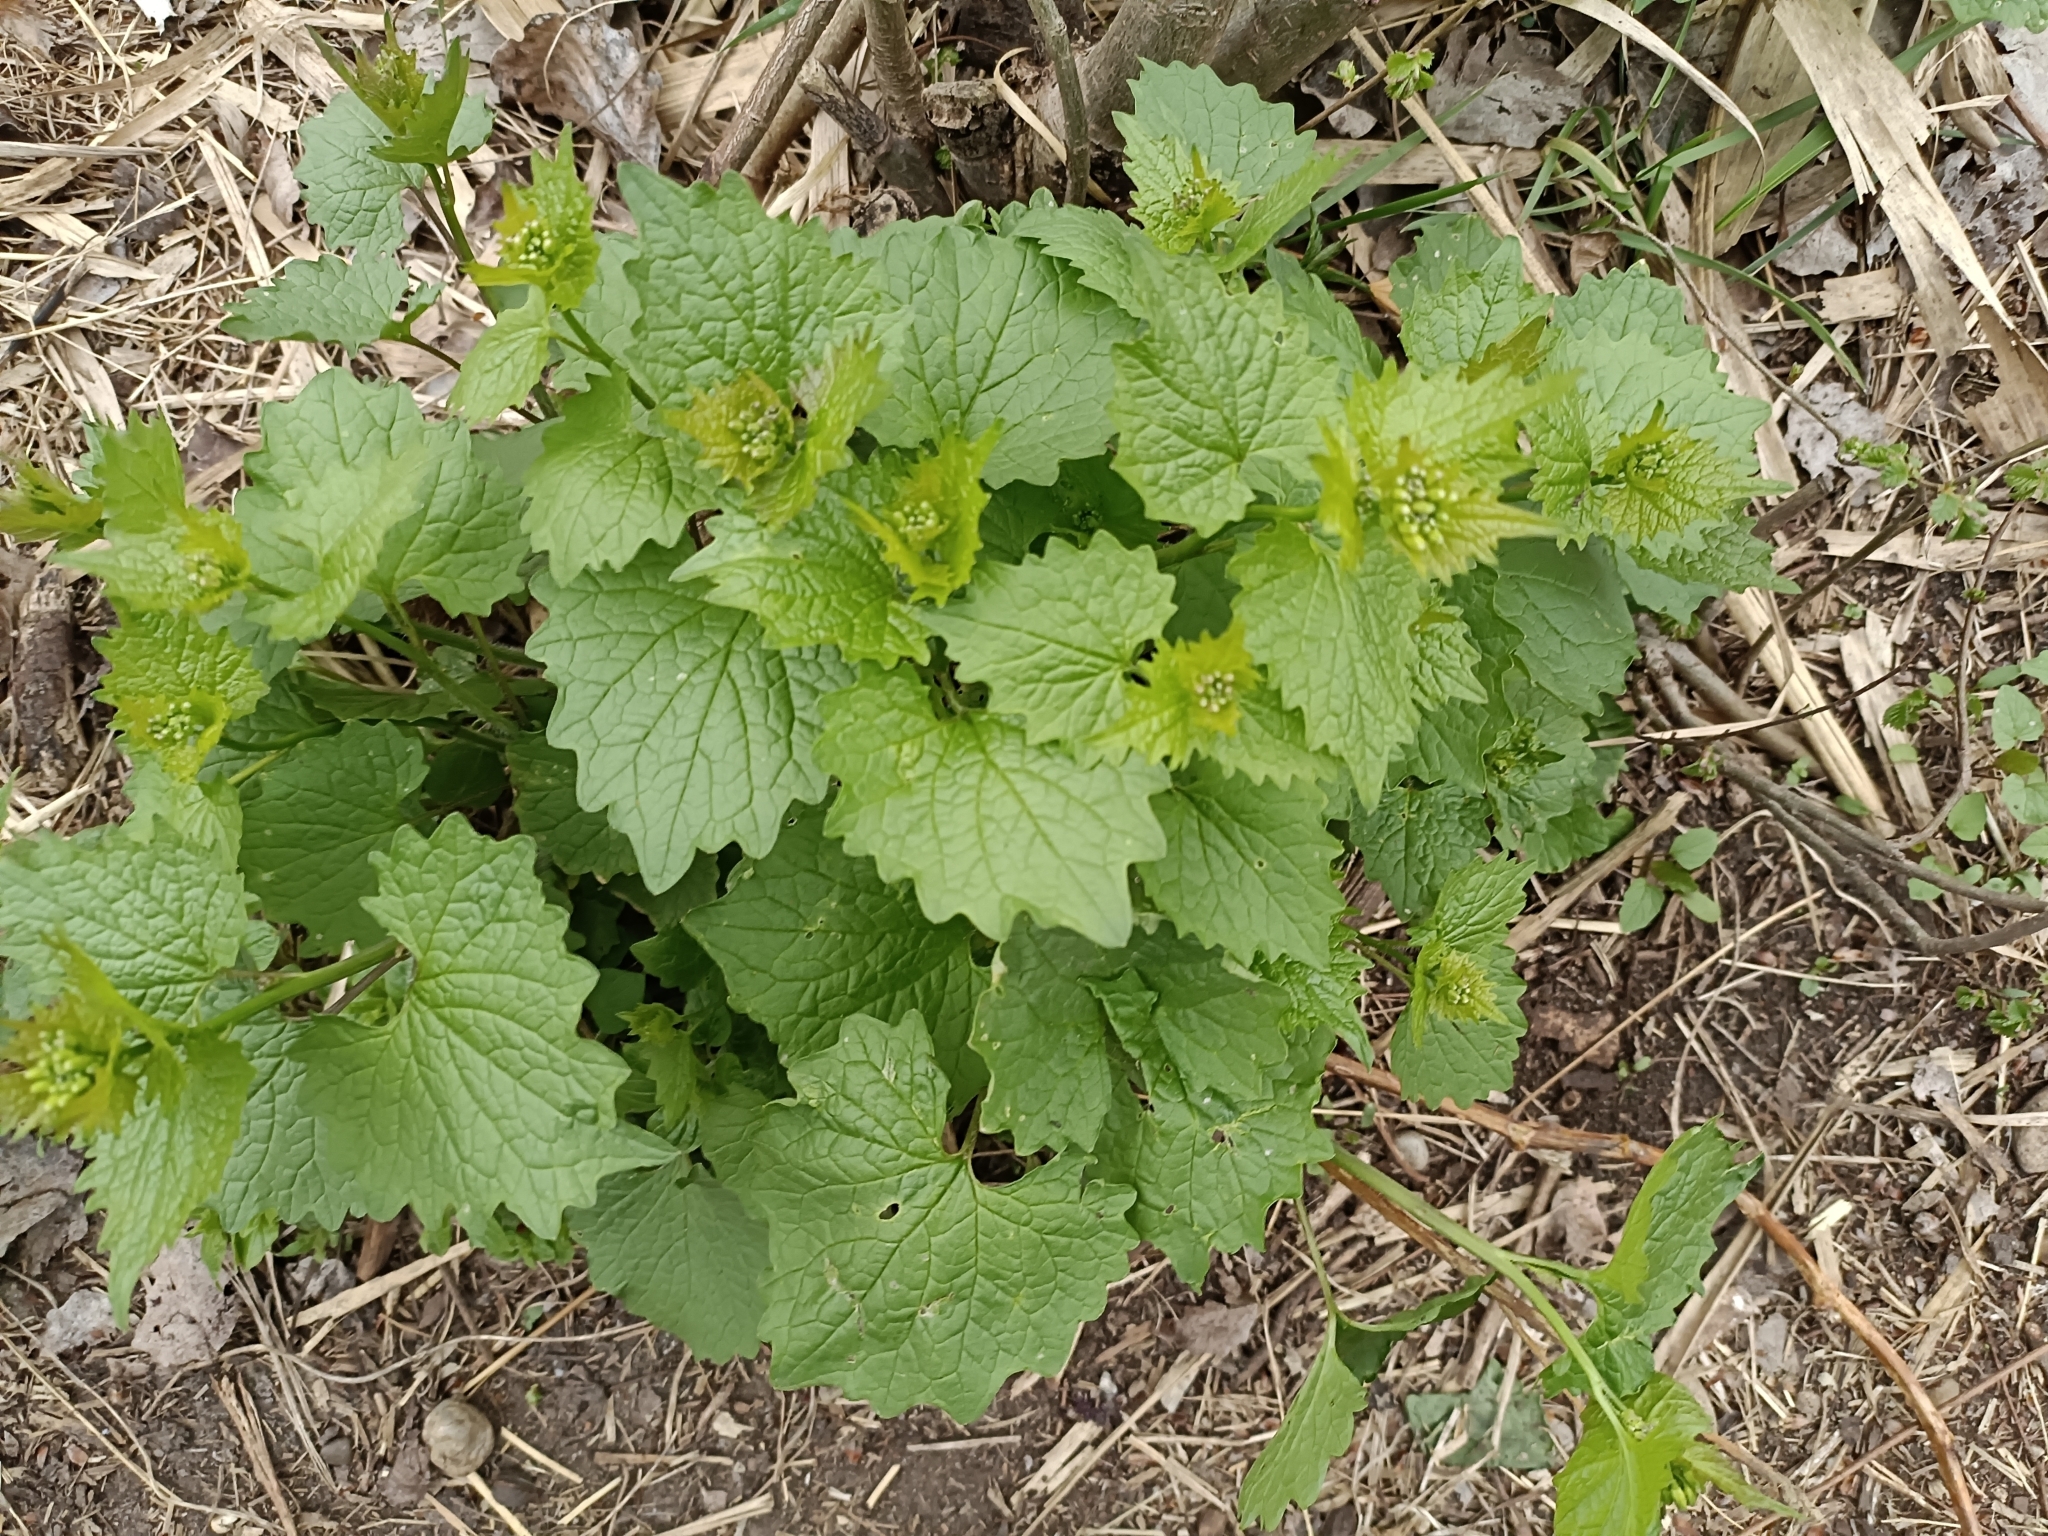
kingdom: Plantae
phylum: Tracheophyta
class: Magnoliopsida
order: Brassicales
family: Brassicaceae
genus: Alliaria
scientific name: Alliaria petiolata
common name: Garlic mustard
